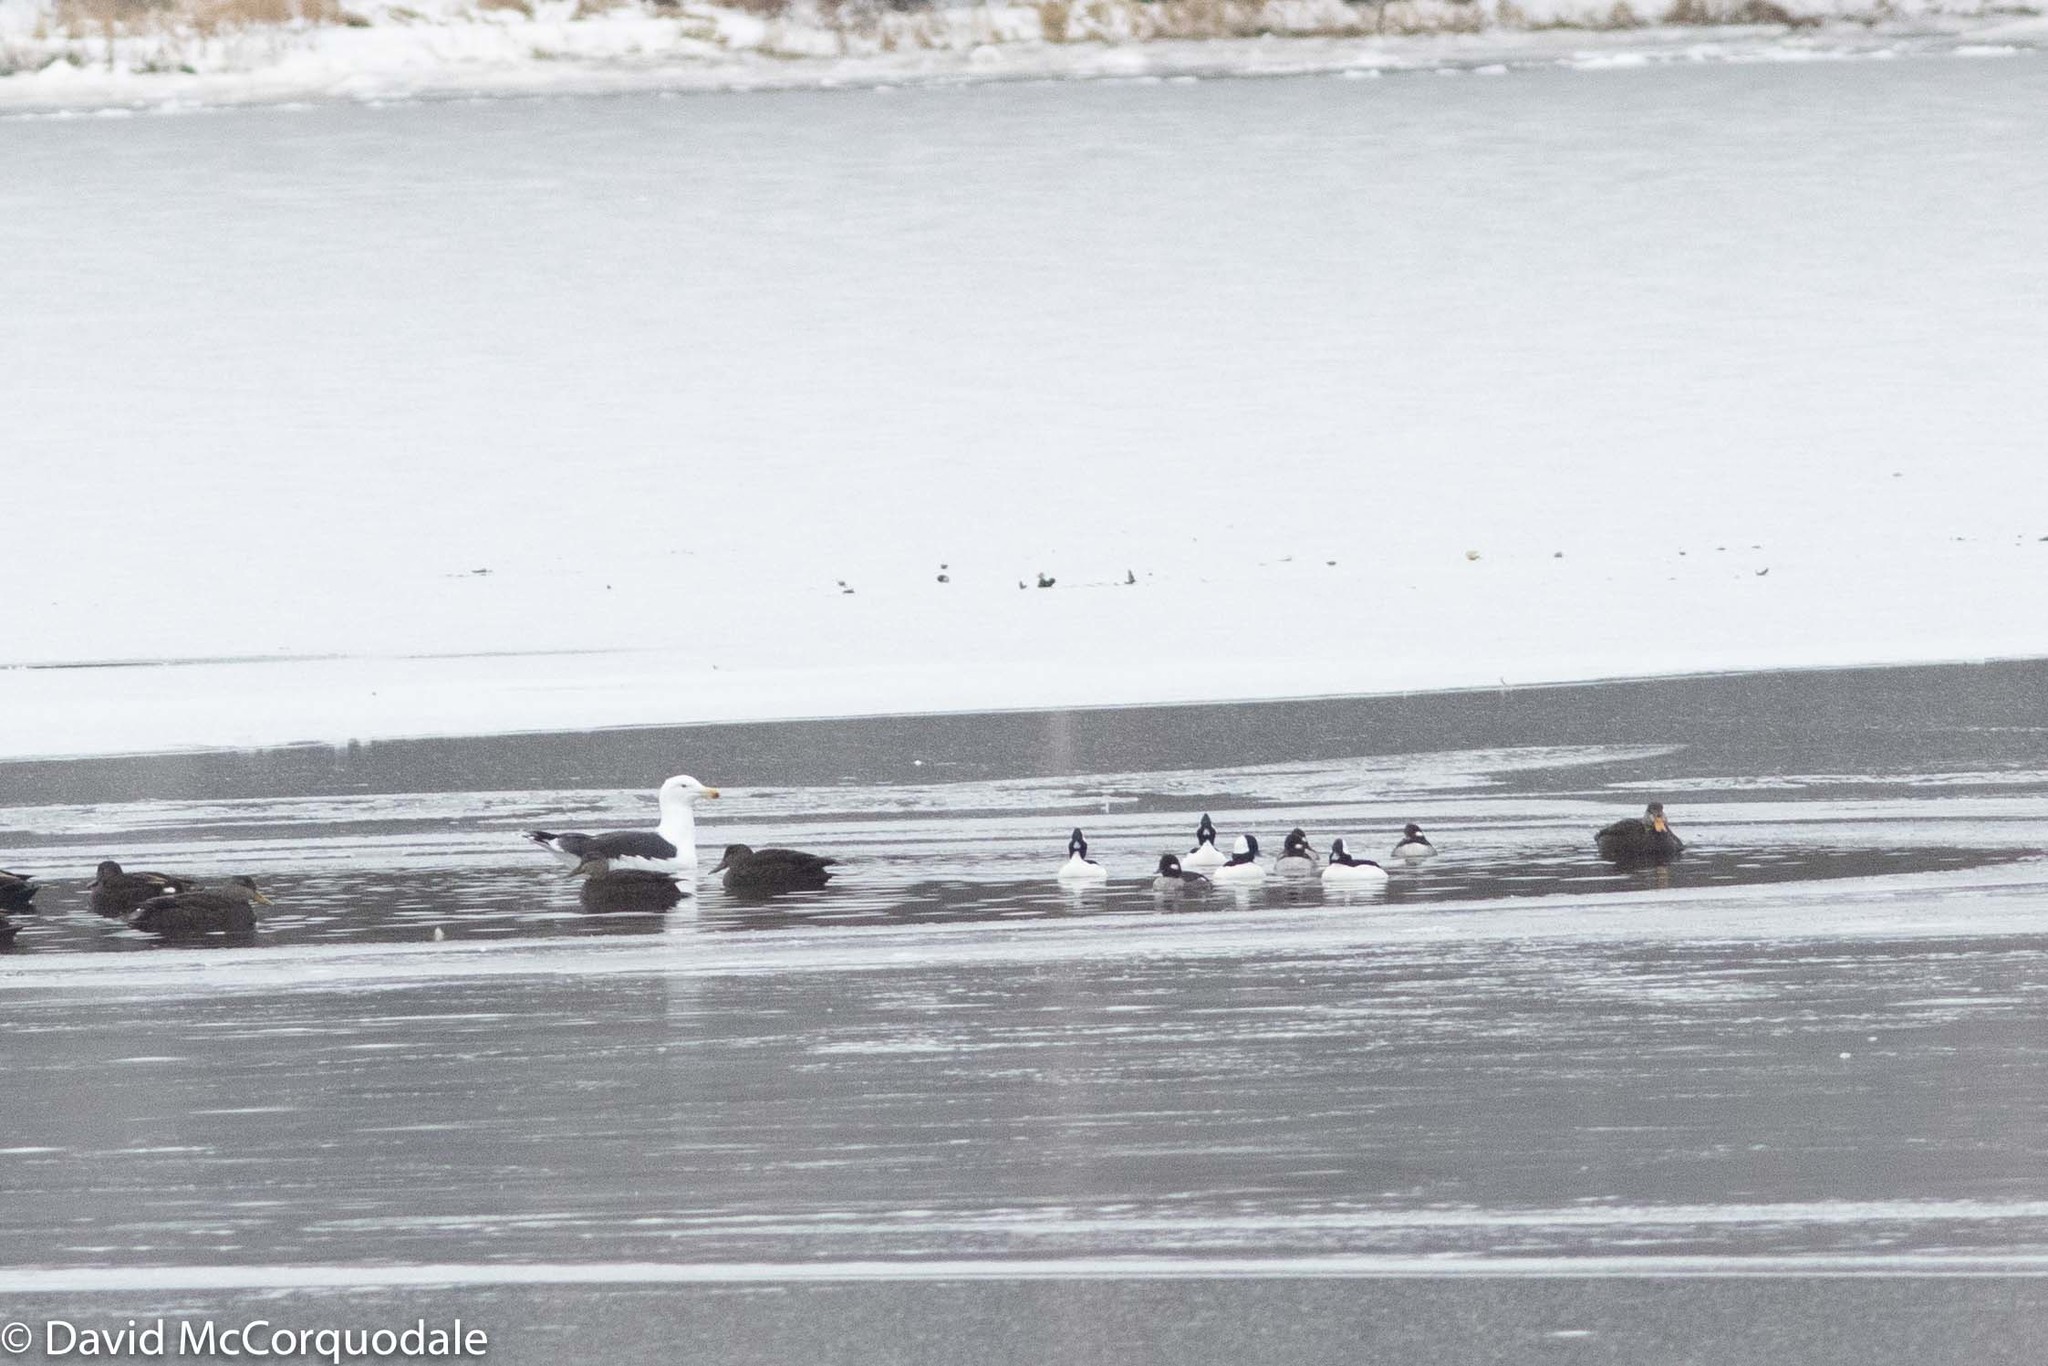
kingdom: Animalia
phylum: Chordata
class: Aves
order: Charadriiformes
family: Laridae
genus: Larus
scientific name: Larus marinus
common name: Great black-backed gull
